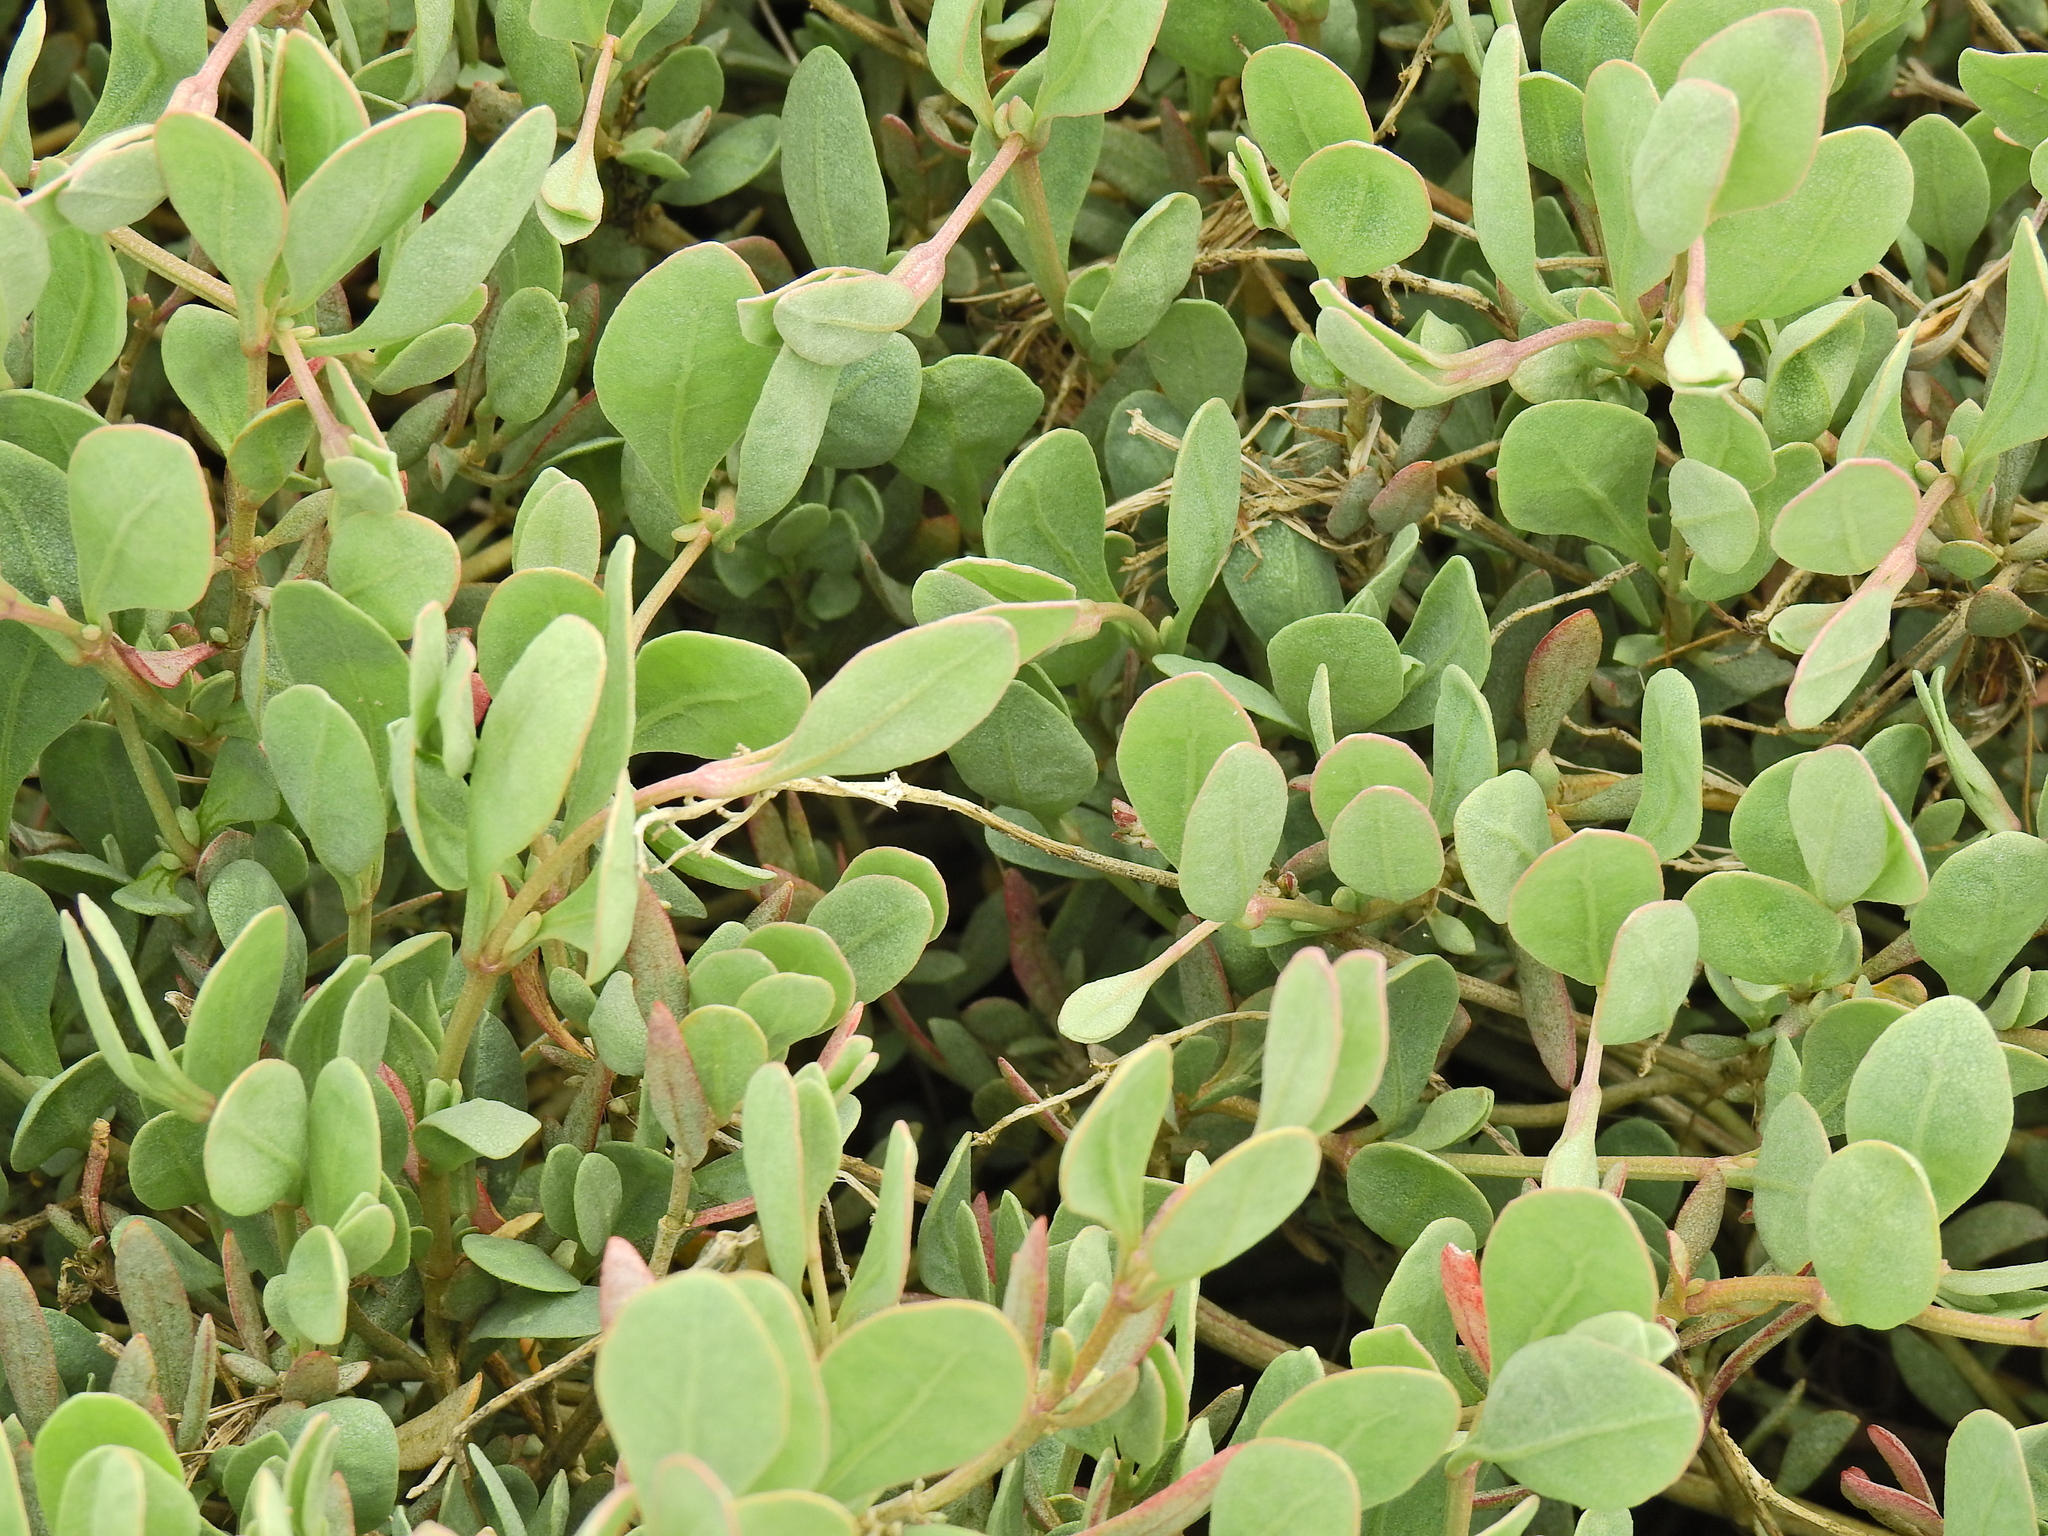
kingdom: Plantae
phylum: Tracheophyta
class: Magnoliopsida
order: Caryophyllales
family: Amaranthaceae
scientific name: Amaranthaceae
